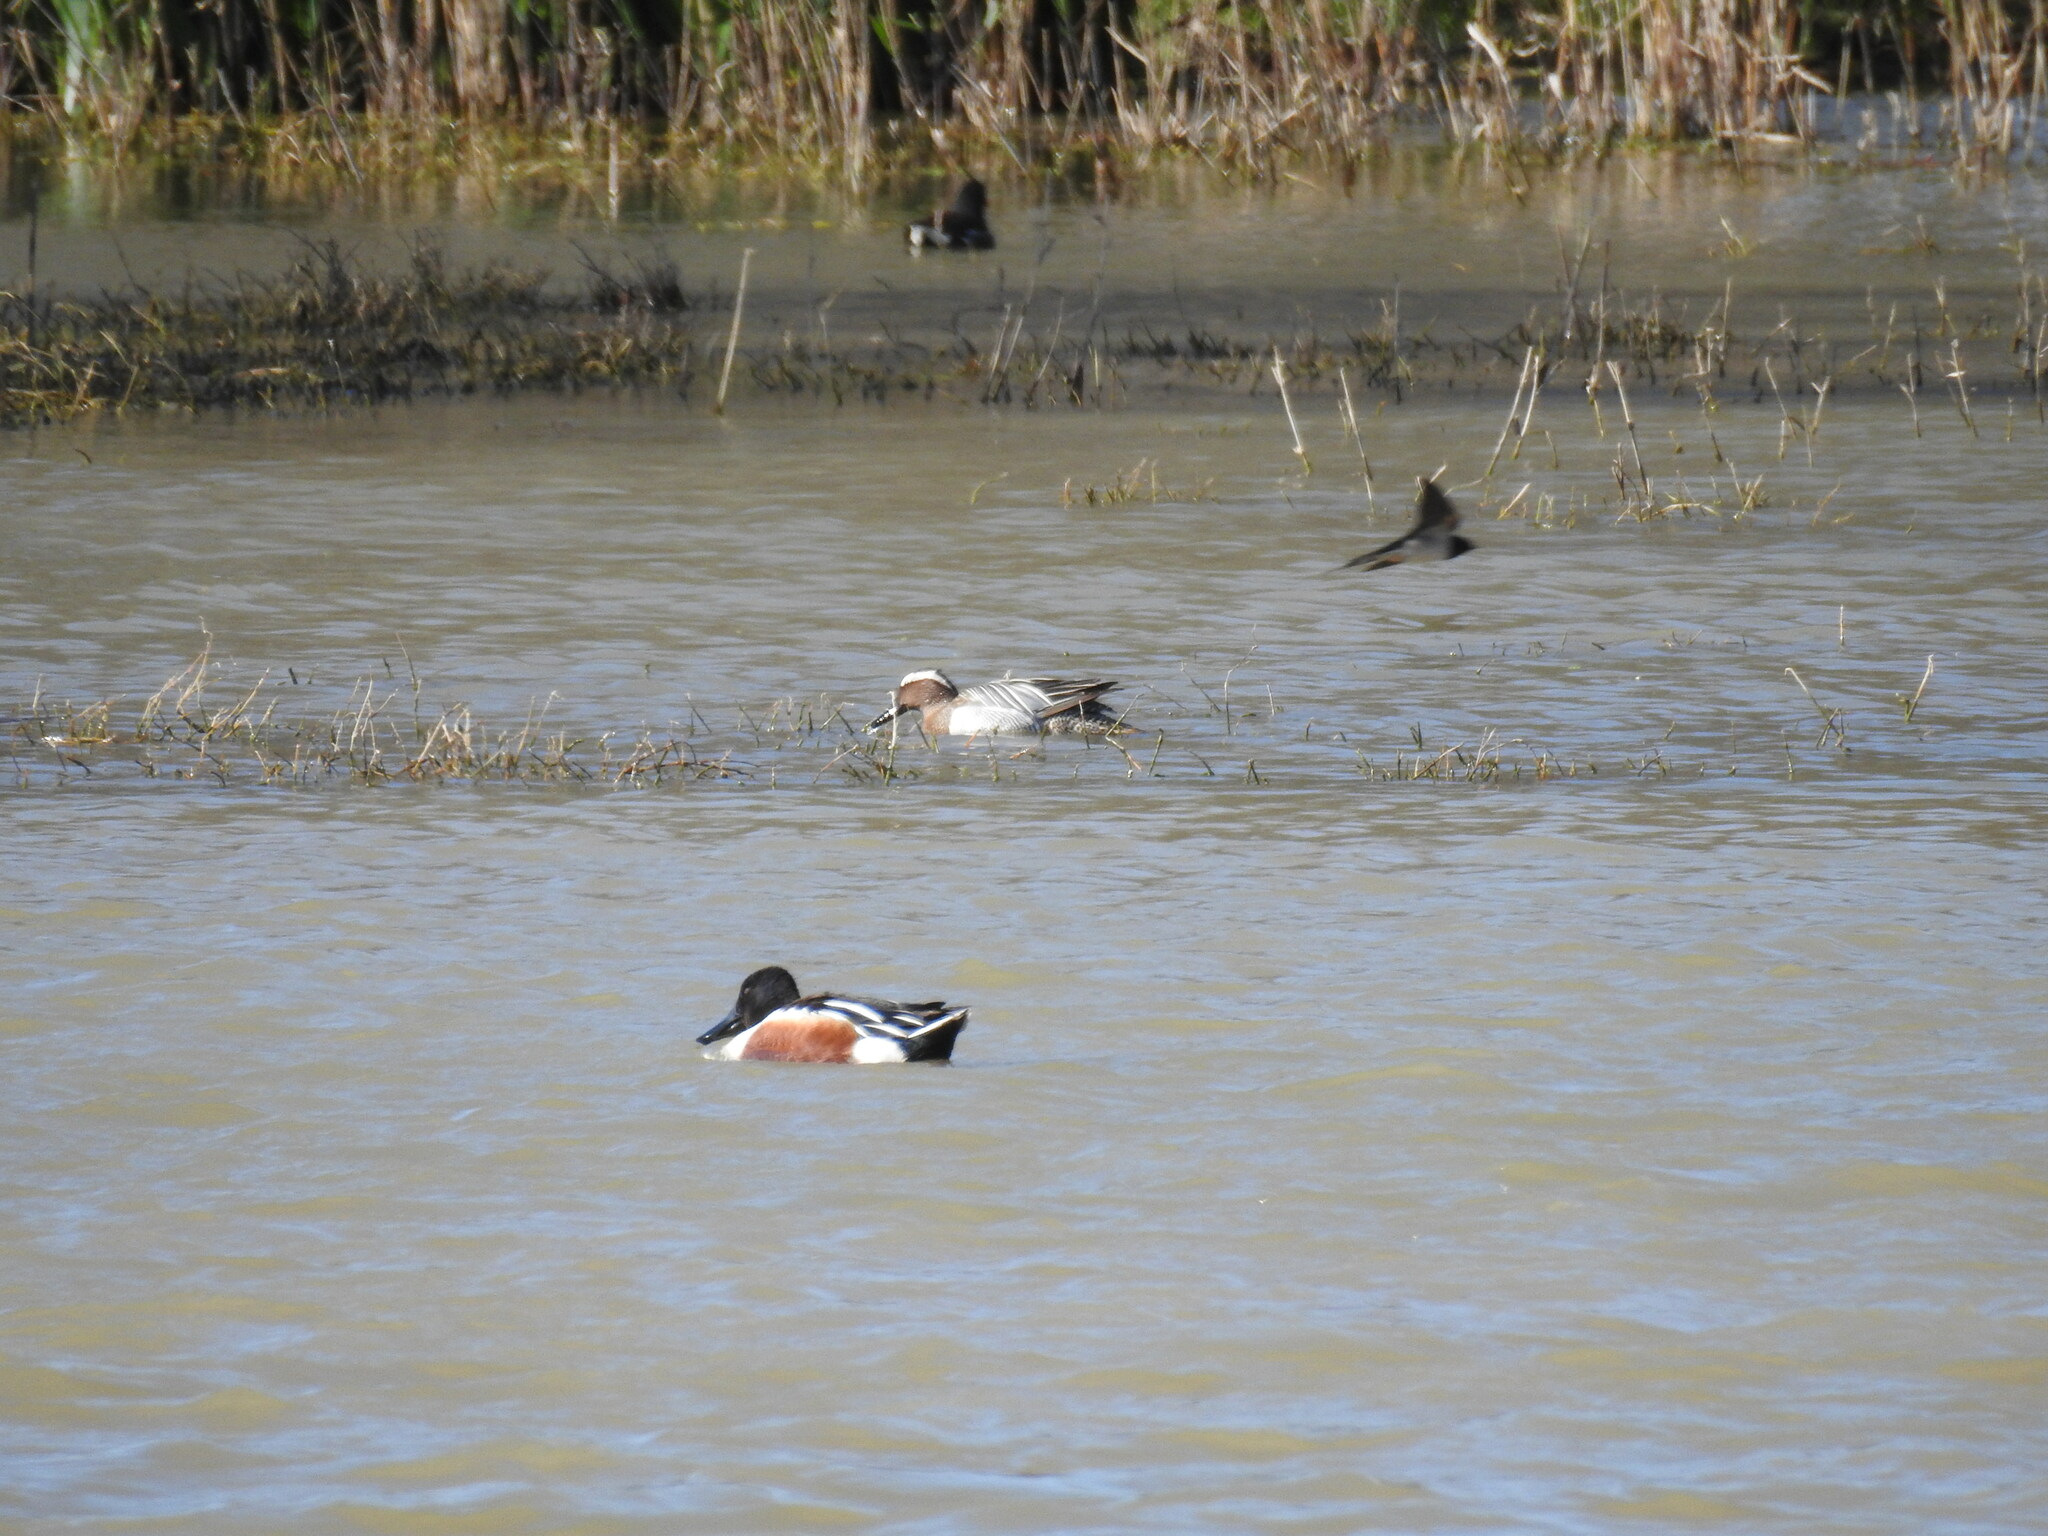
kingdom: Animalia
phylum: Chordata
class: Aves
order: Anseriformes
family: Anatidae
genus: Spatula
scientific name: Spatula querquedula
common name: Garganey
